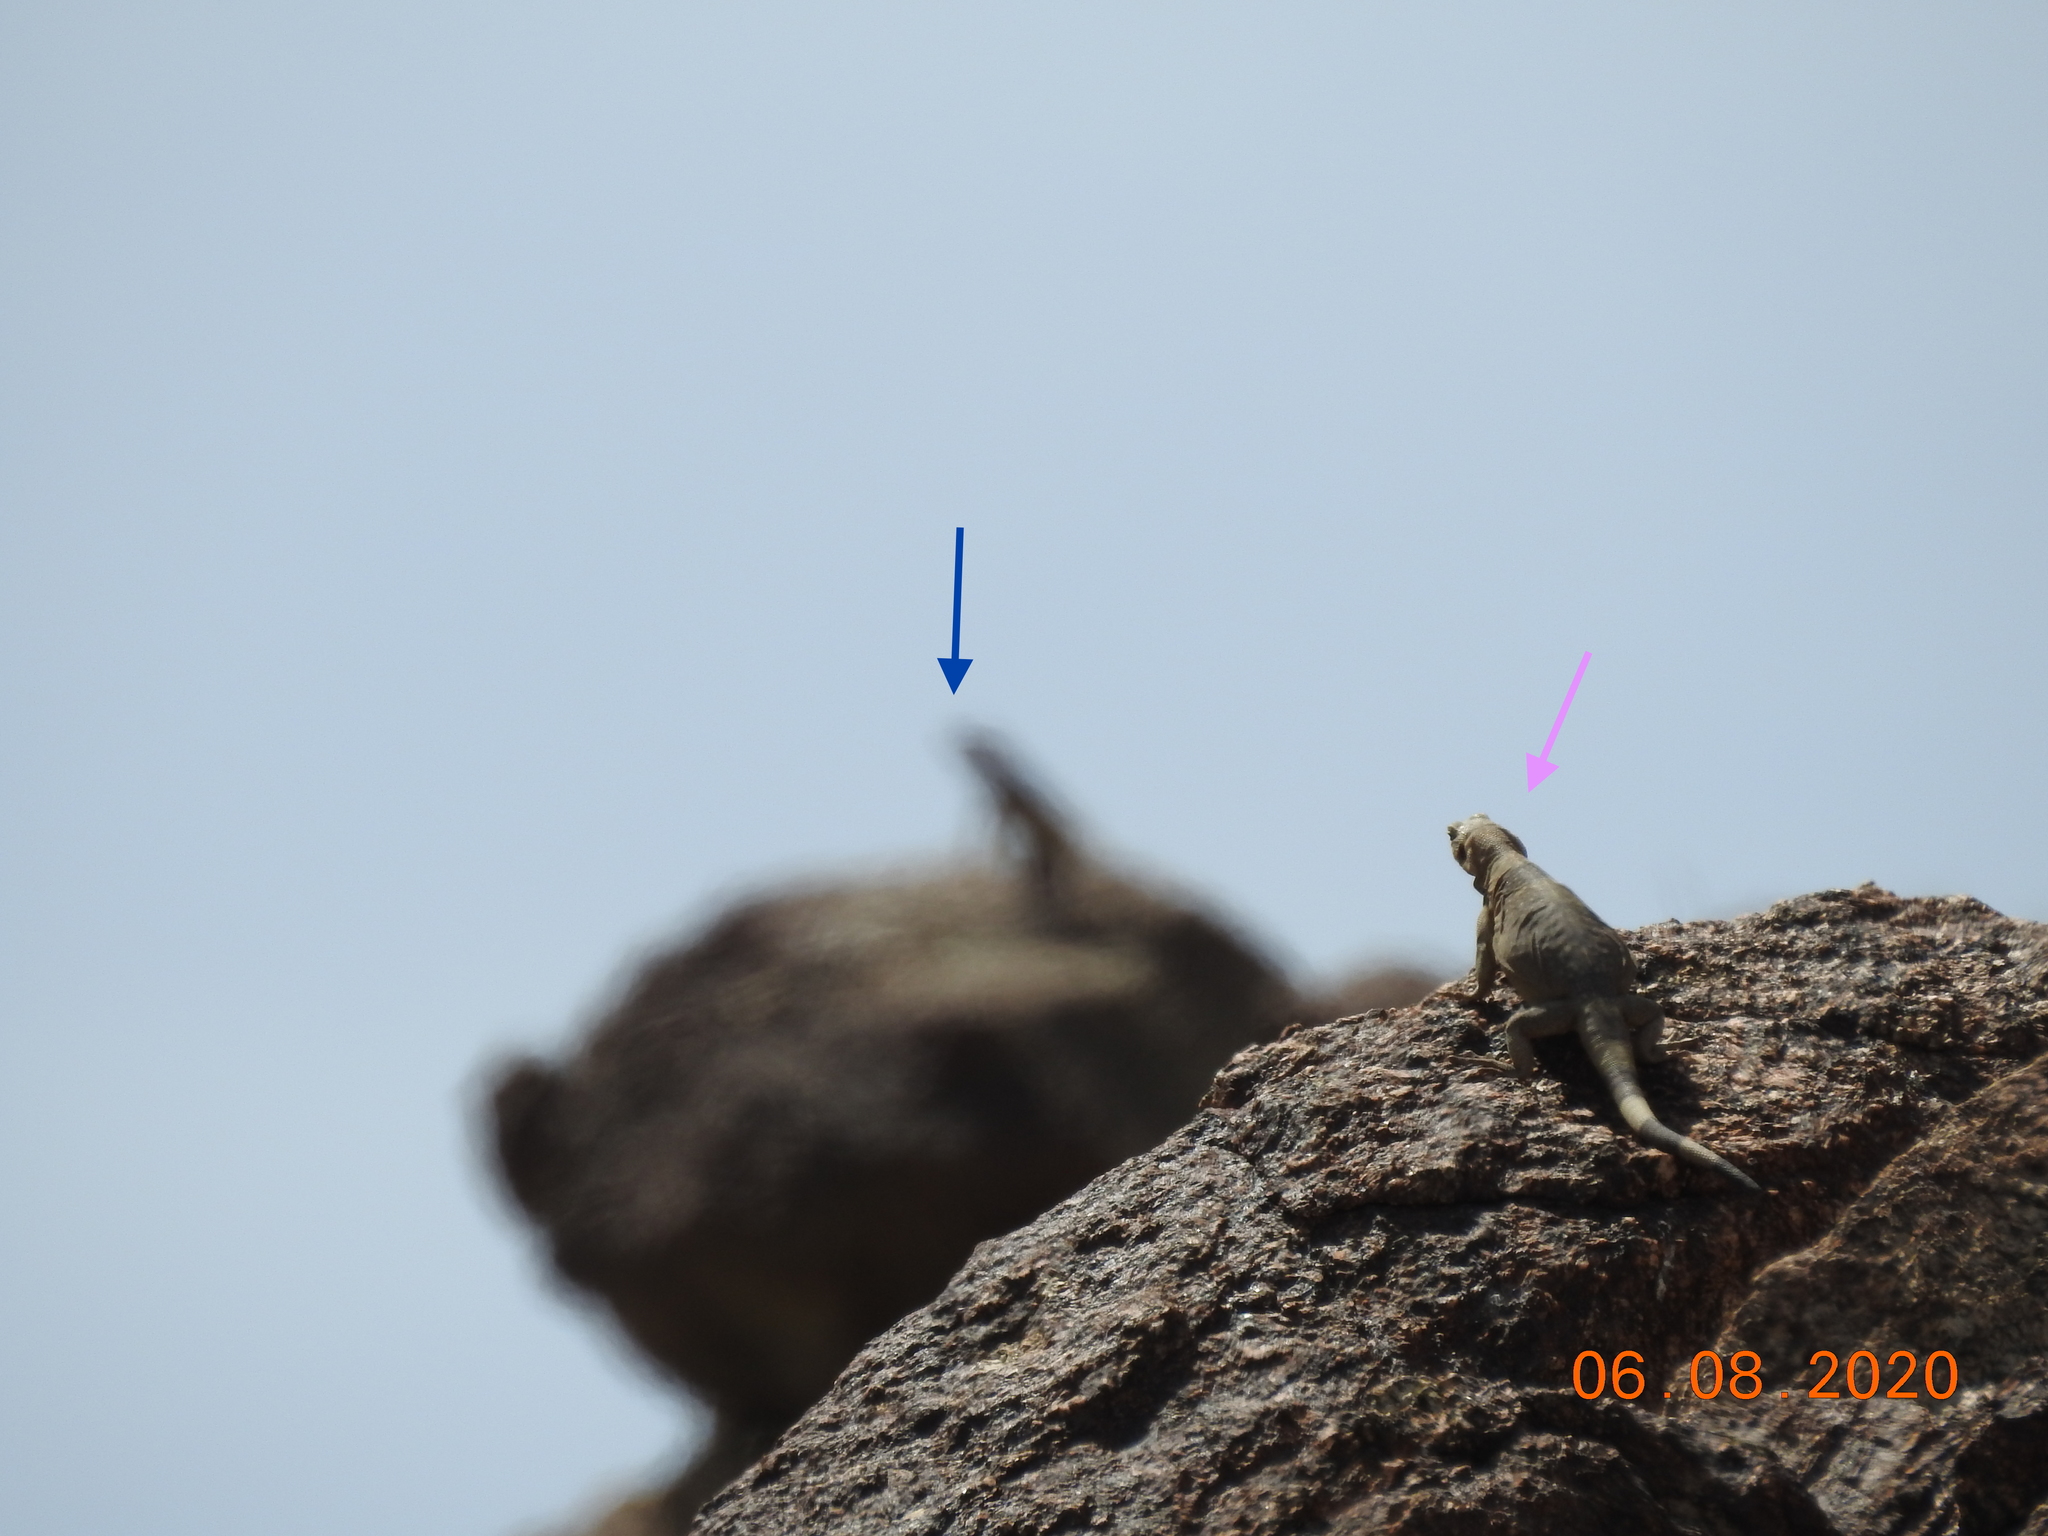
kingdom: Animalia
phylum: Chordata
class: Squamata
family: Iguanidae
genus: Sauromalus
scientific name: Sauromalus ater
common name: Northern chuckwalla
